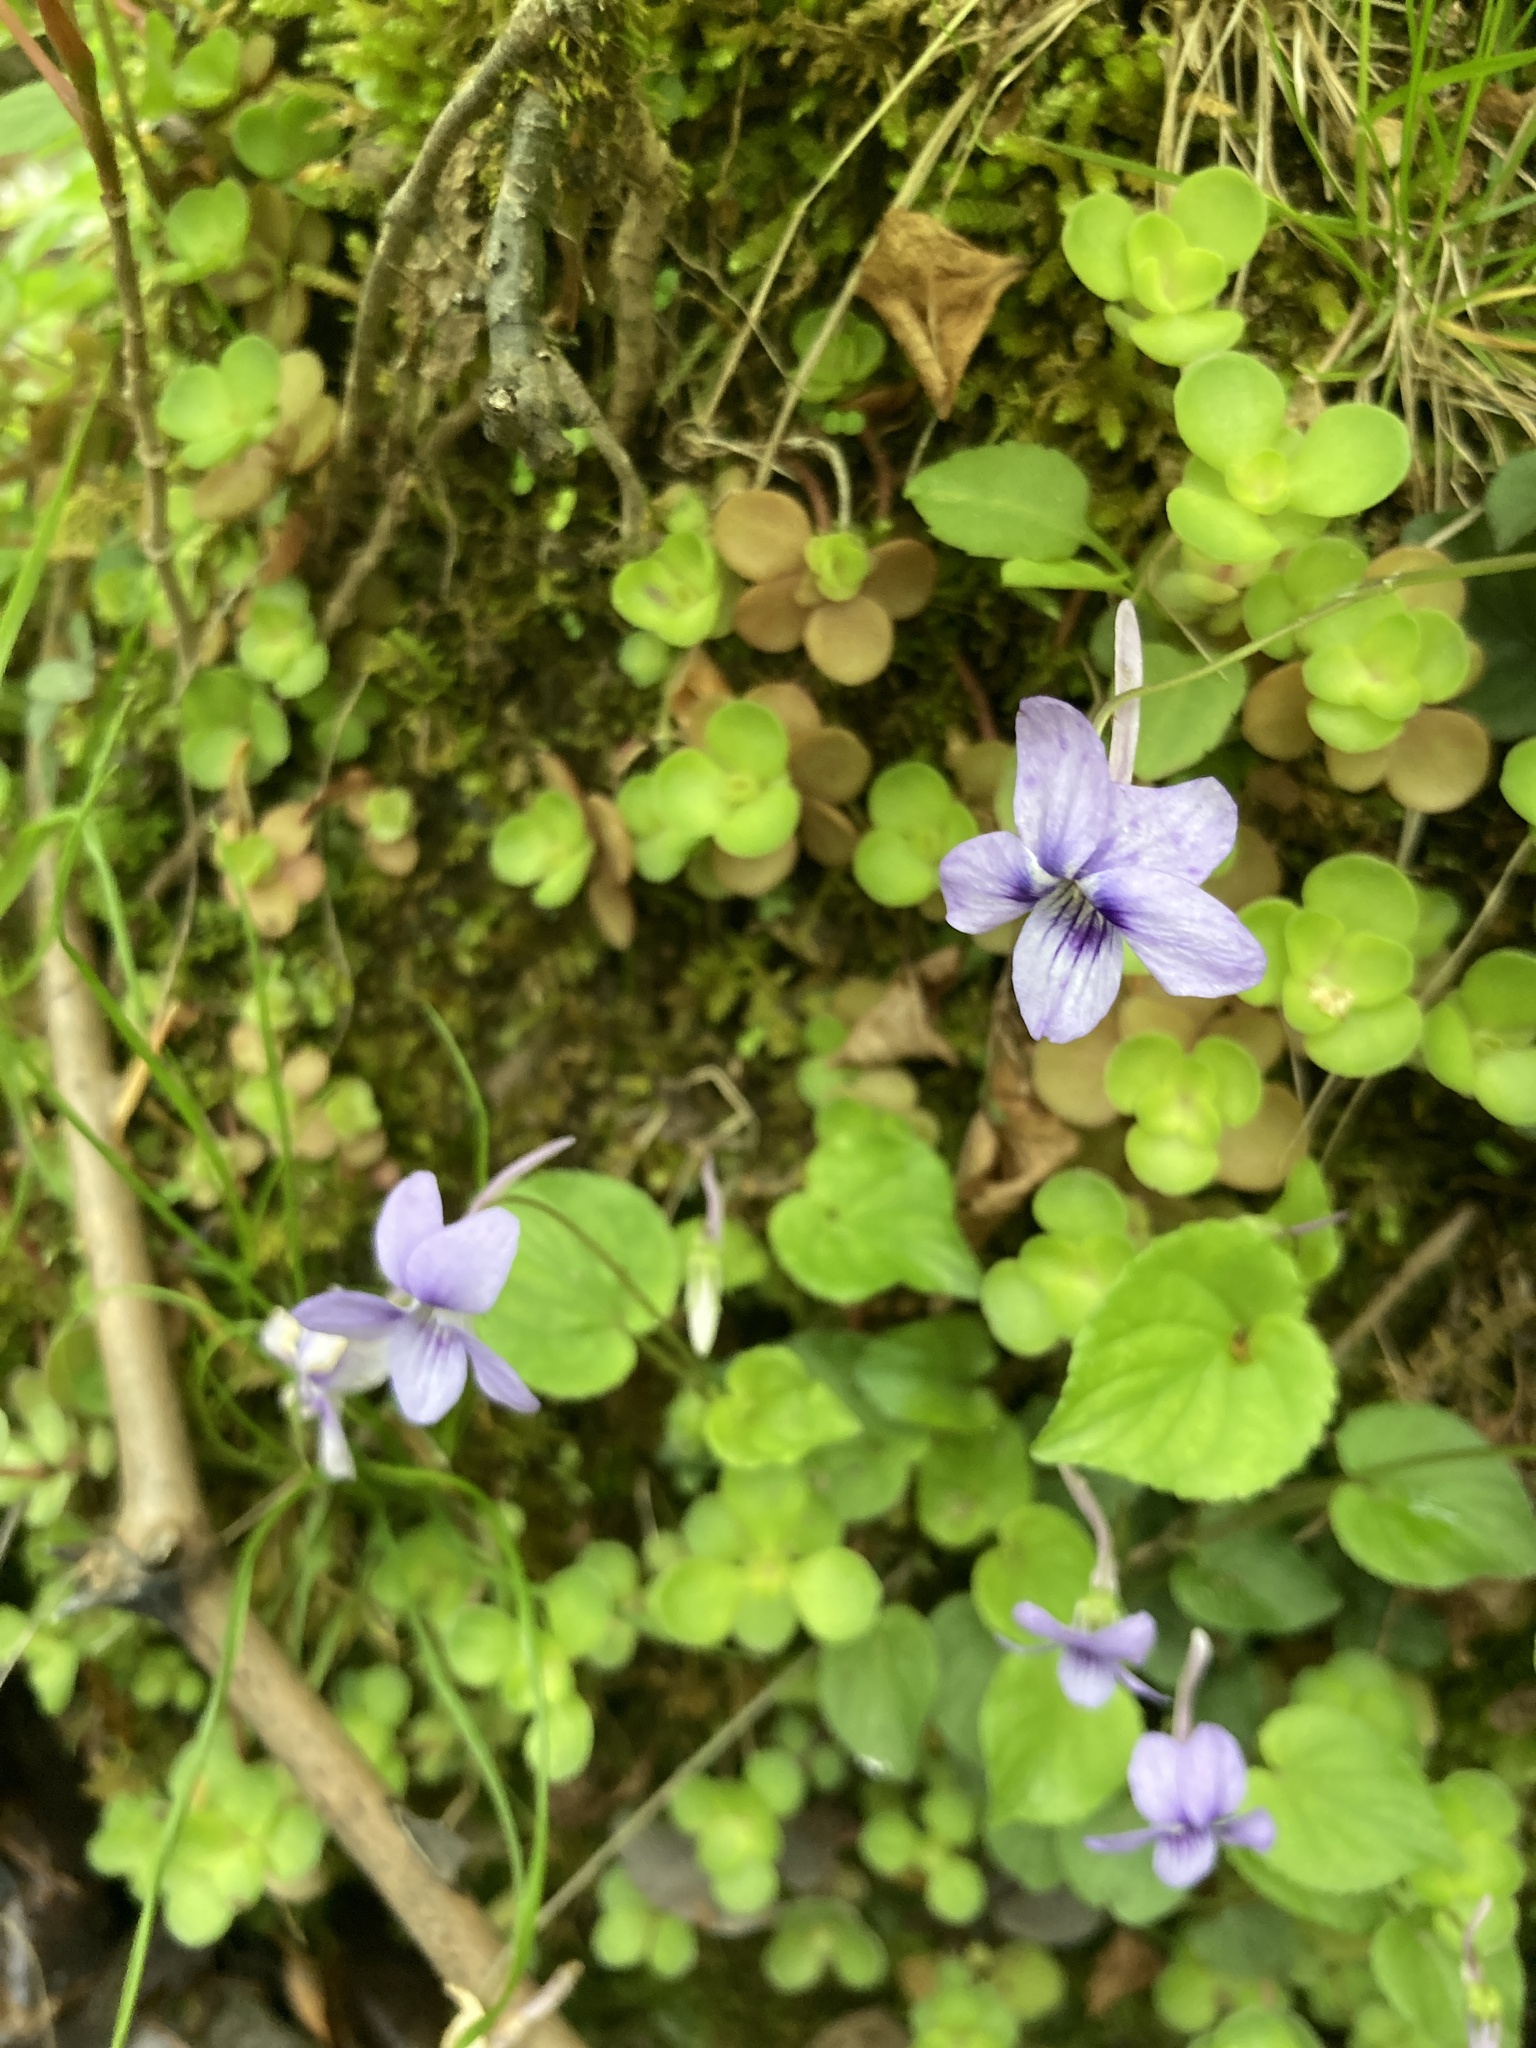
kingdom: Plantae
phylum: Tracheophyta
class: Magnoliopsida
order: Malpighiales
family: Violaceae
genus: Viola
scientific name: Viola rostrata
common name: Long-spur violet
